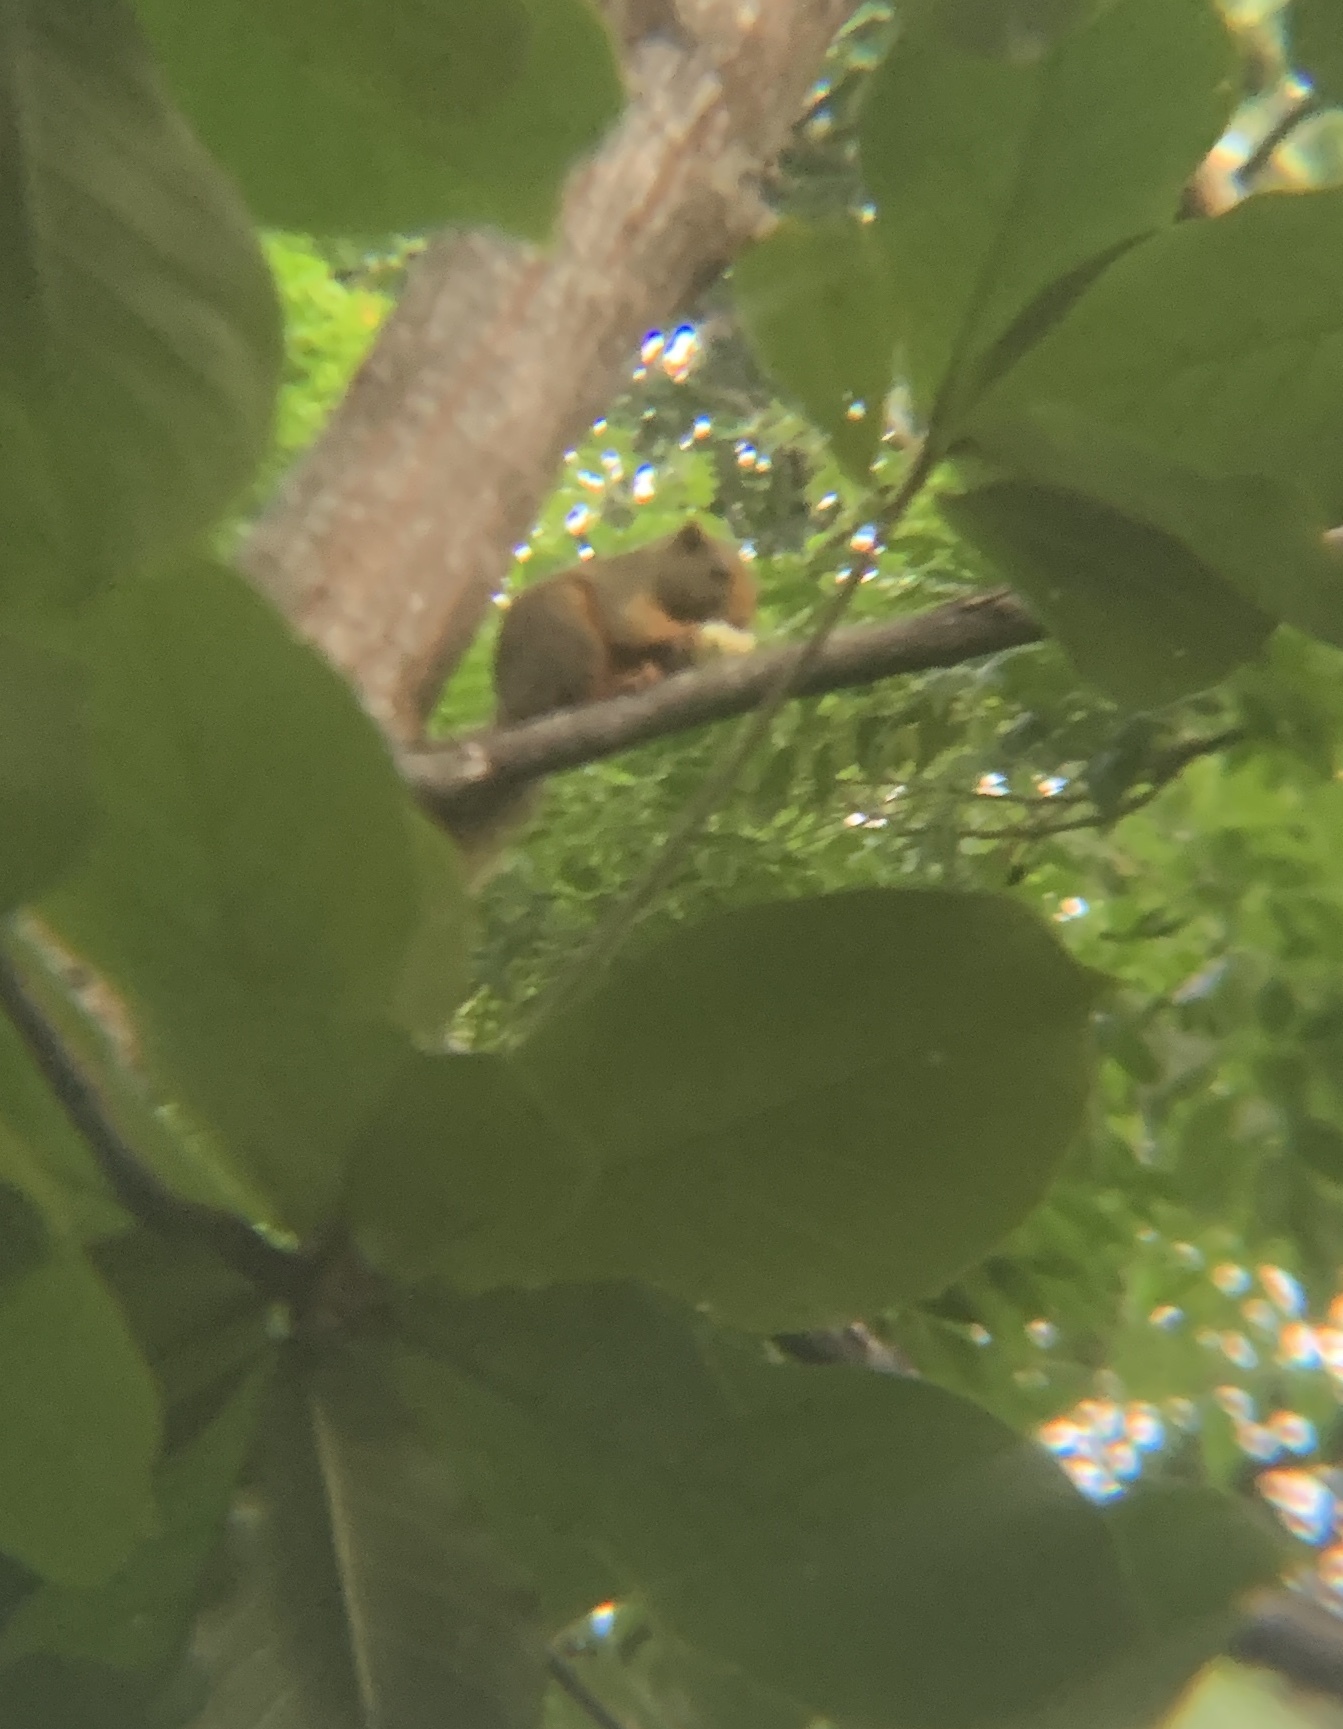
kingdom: Animalia
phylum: Chordata
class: Mammalia
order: Rodentia
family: Sciuridae
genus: Callosciurus
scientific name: Callosciurus erythraeus
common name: Pallas's squirrel
